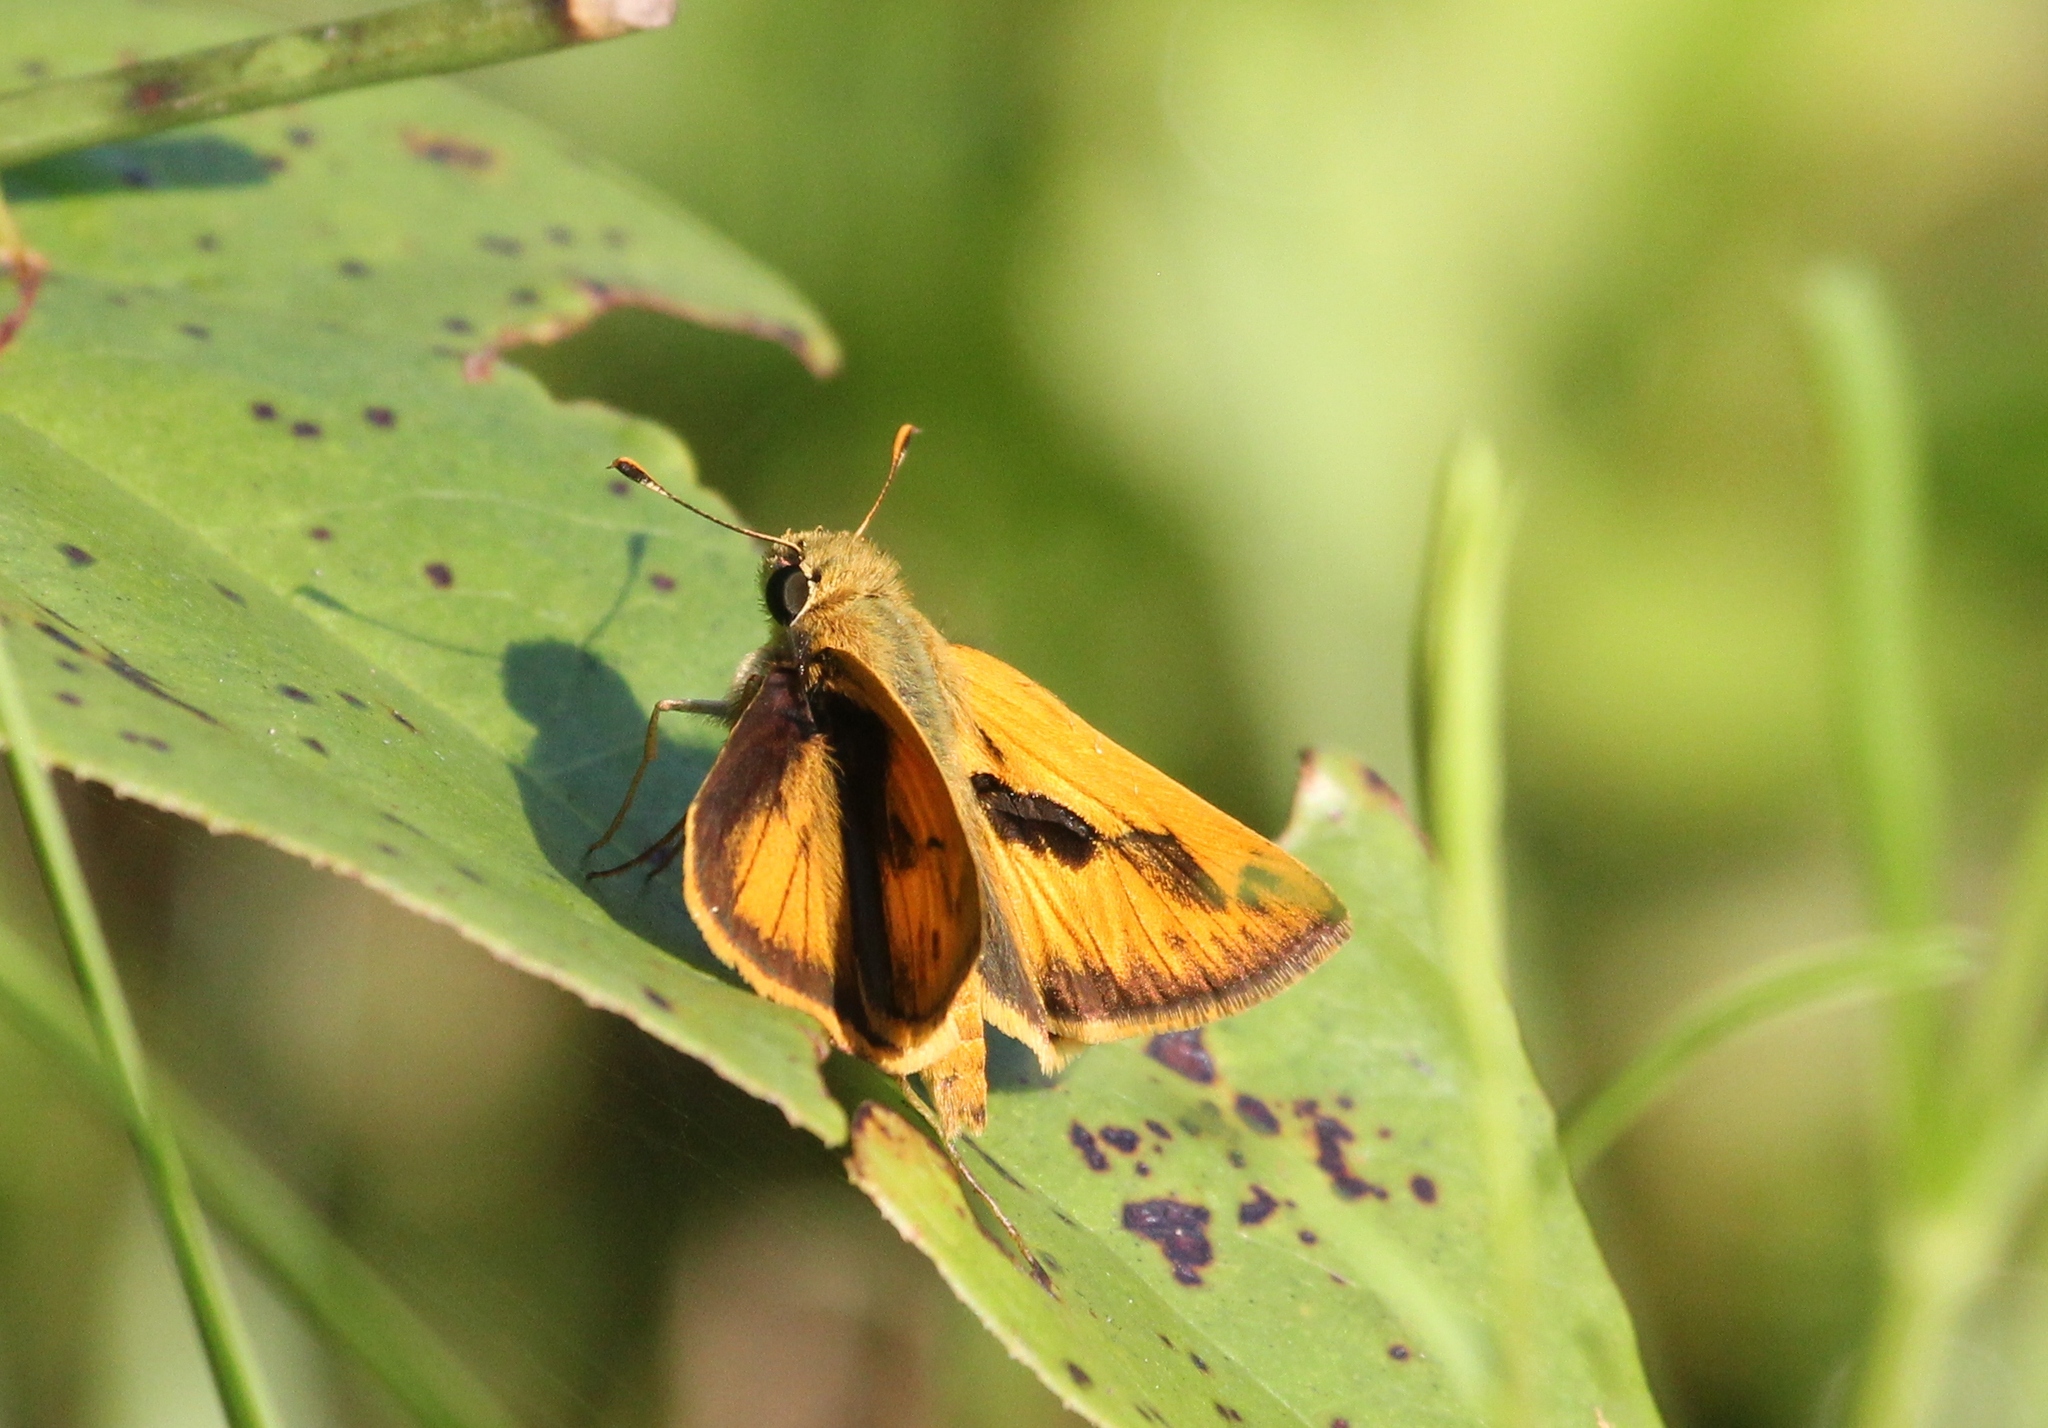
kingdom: Animalia
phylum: Arthropoda
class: Insecta
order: Lepidoptera
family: Hesperiidae
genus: Polites
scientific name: Polites vibex
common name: Whirlabout
